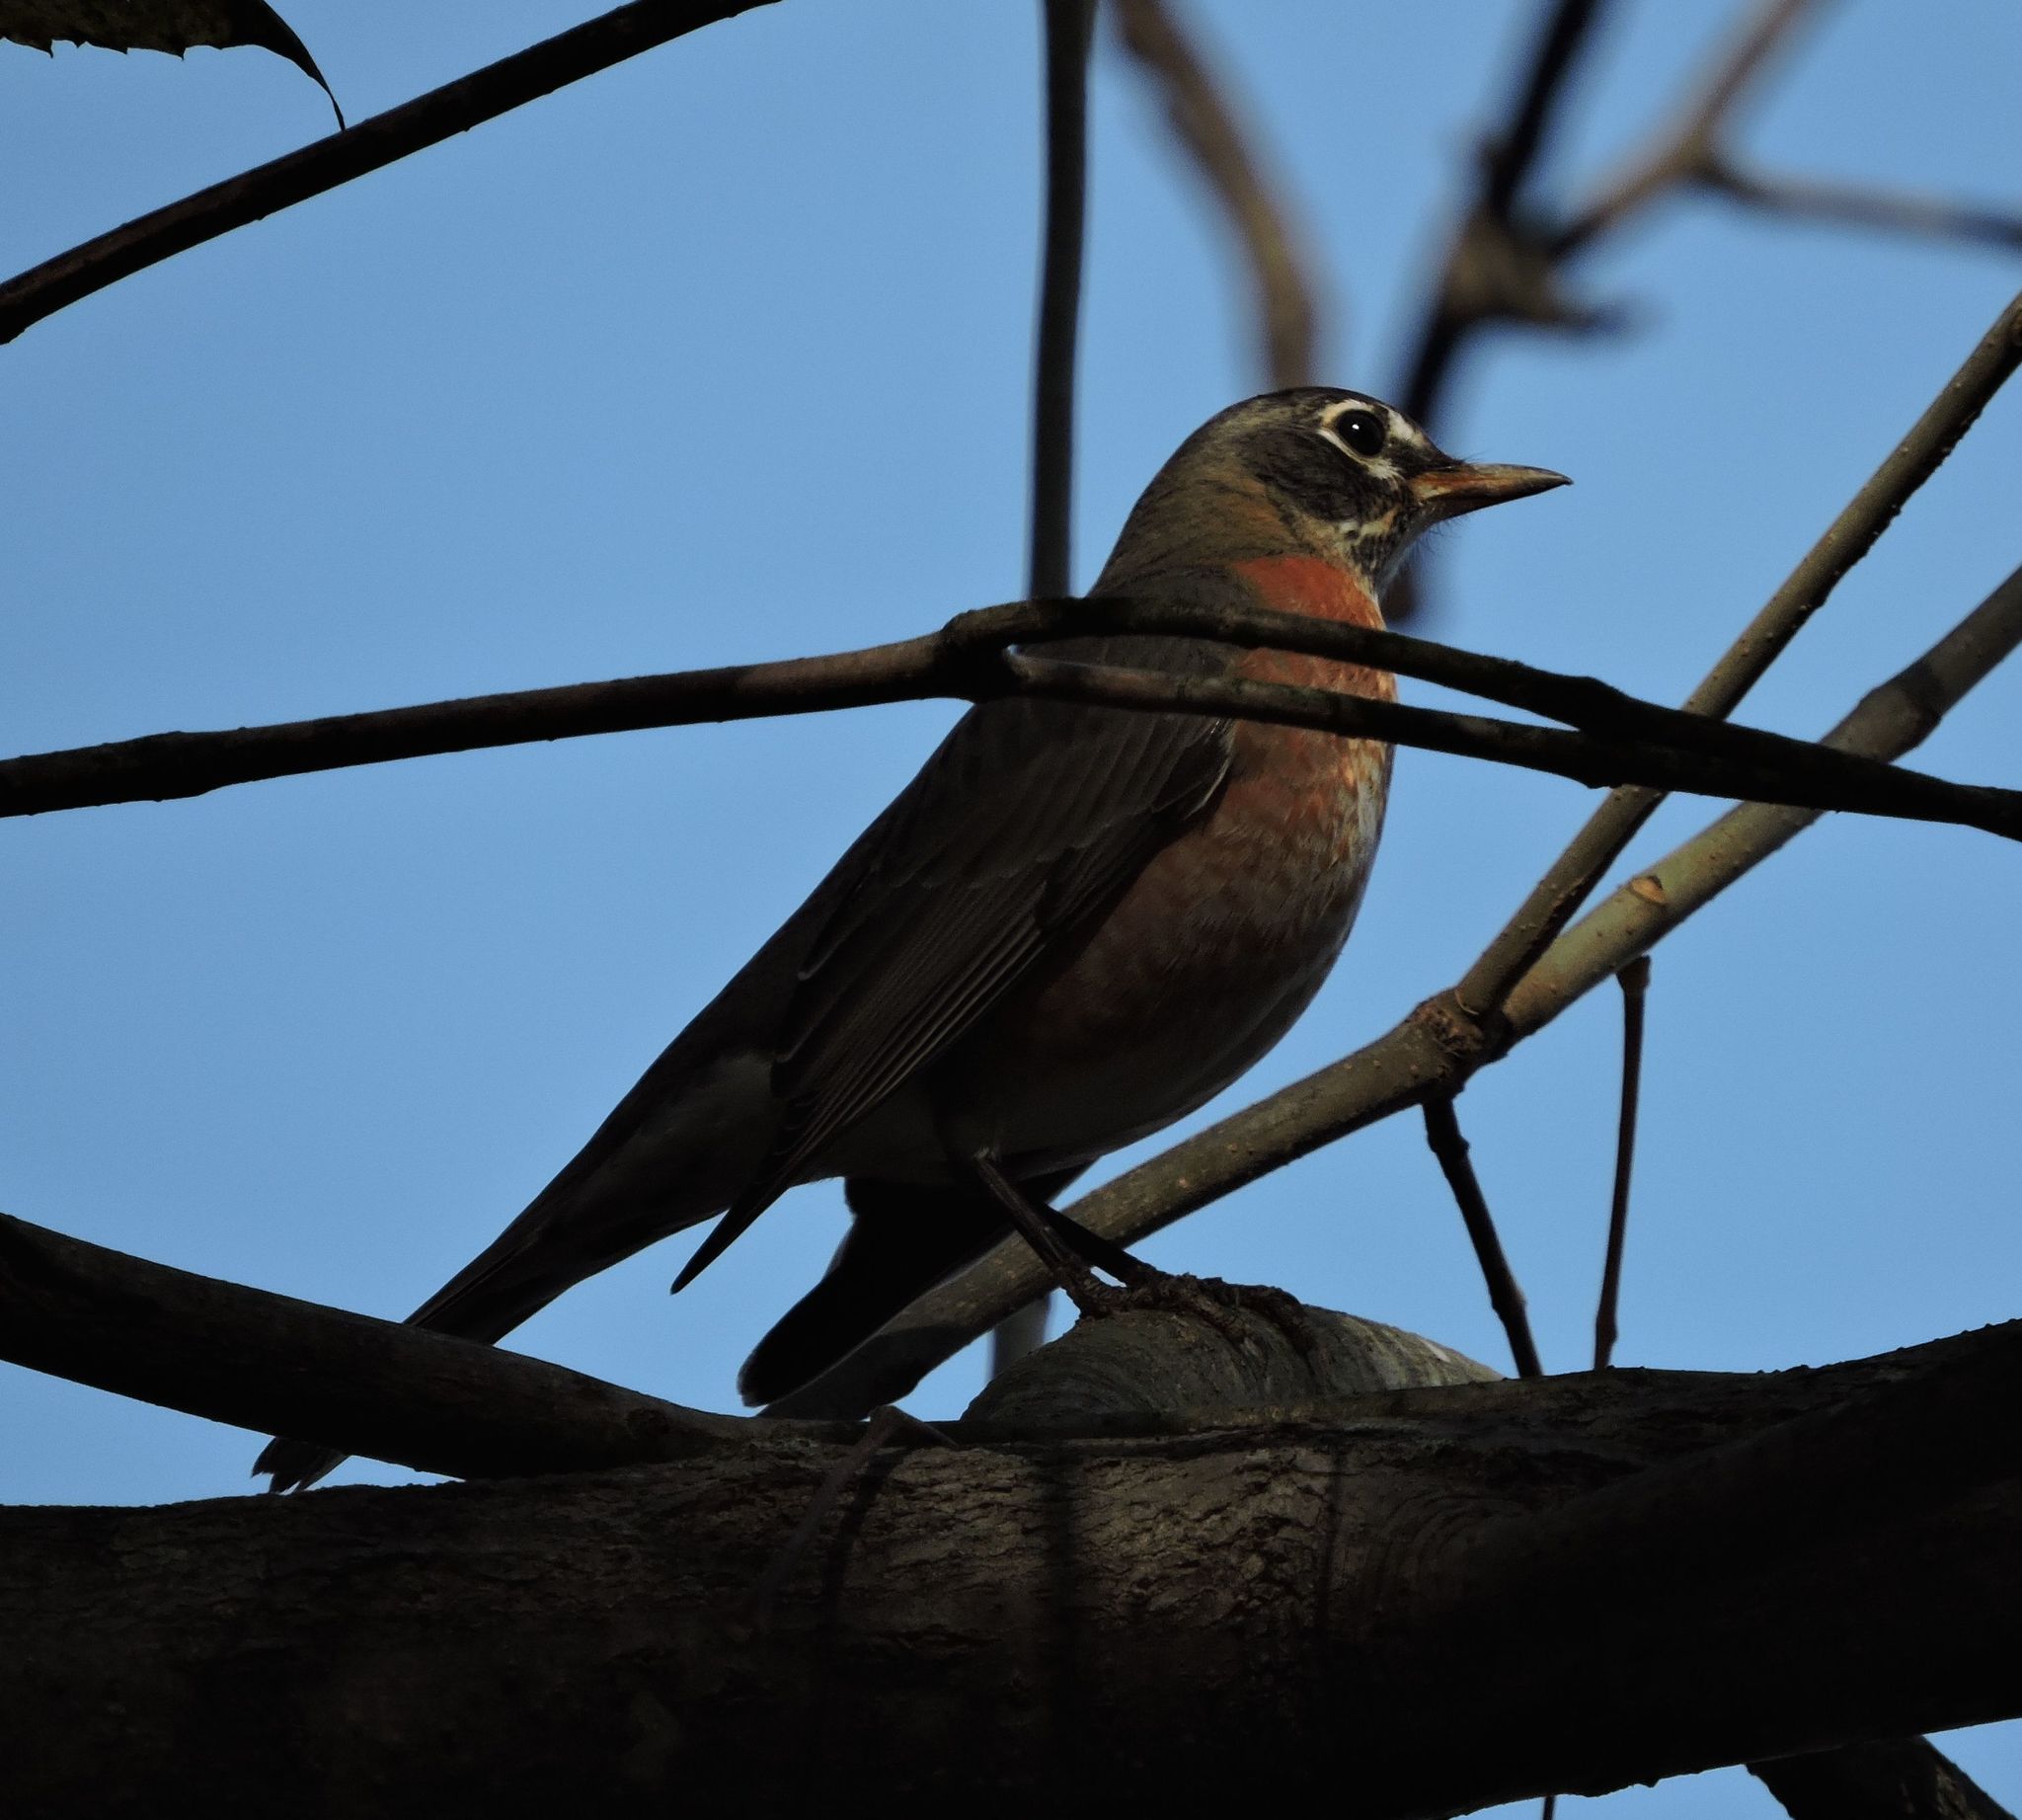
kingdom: Animalia
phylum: Chordata
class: Aves
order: Passeriformes
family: Turdidae
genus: Turdus
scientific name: Turdus migratorius
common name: American robin
